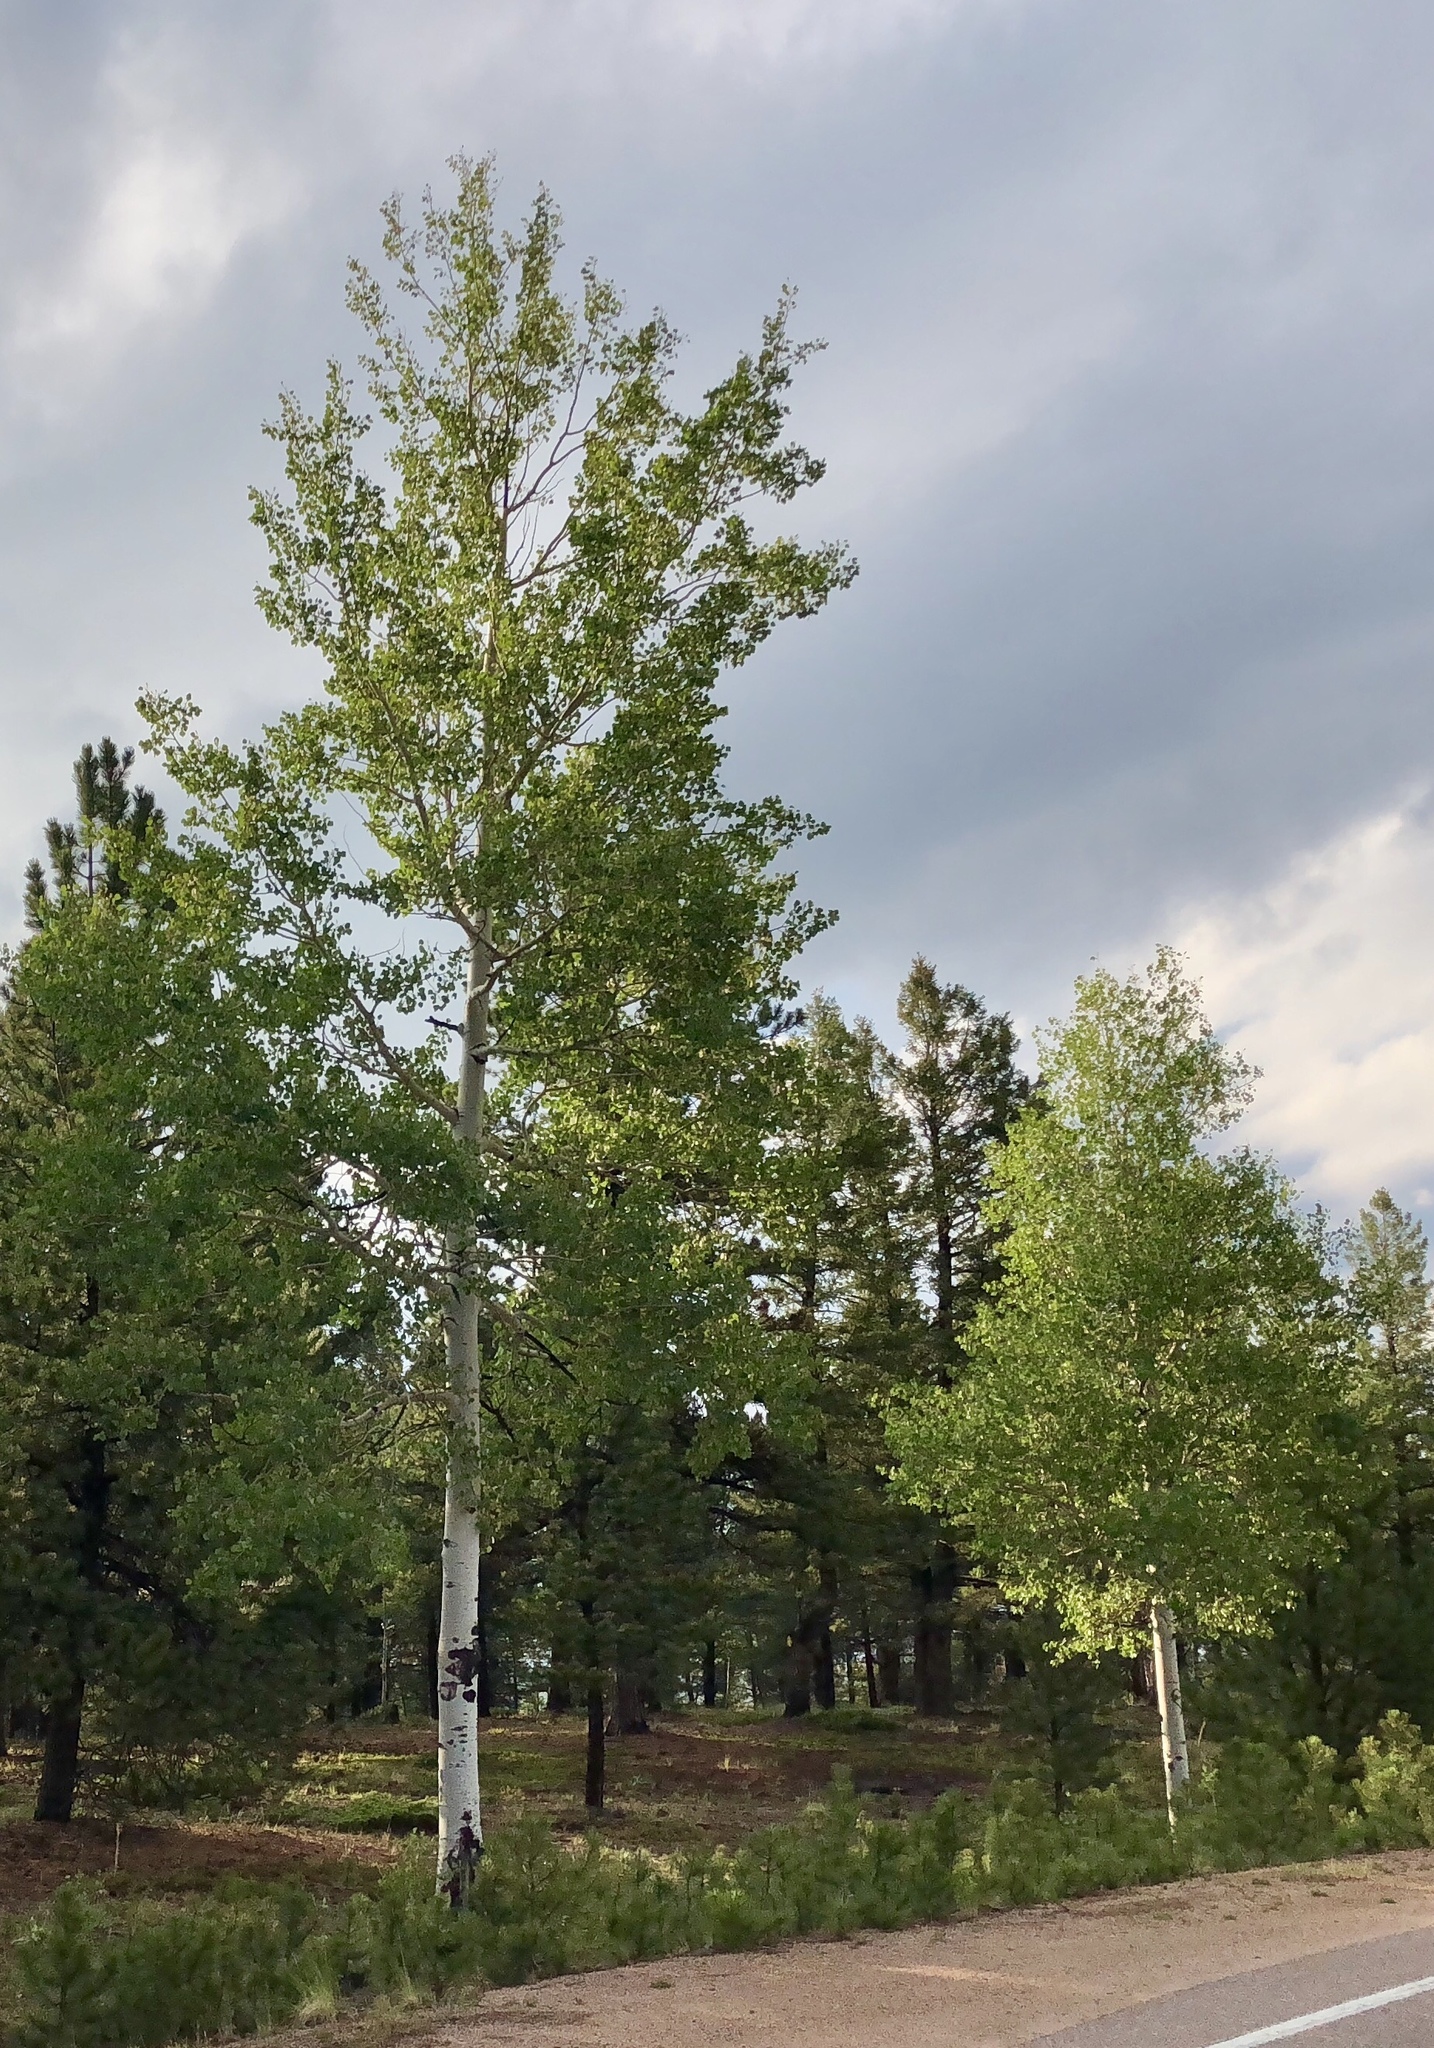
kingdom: Plantae
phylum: Tracheophyta
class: Magnoliopsida
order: Malpighiales
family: Salicaceae
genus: Populus
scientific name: Populus tremuloides
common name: Quaking aspen
